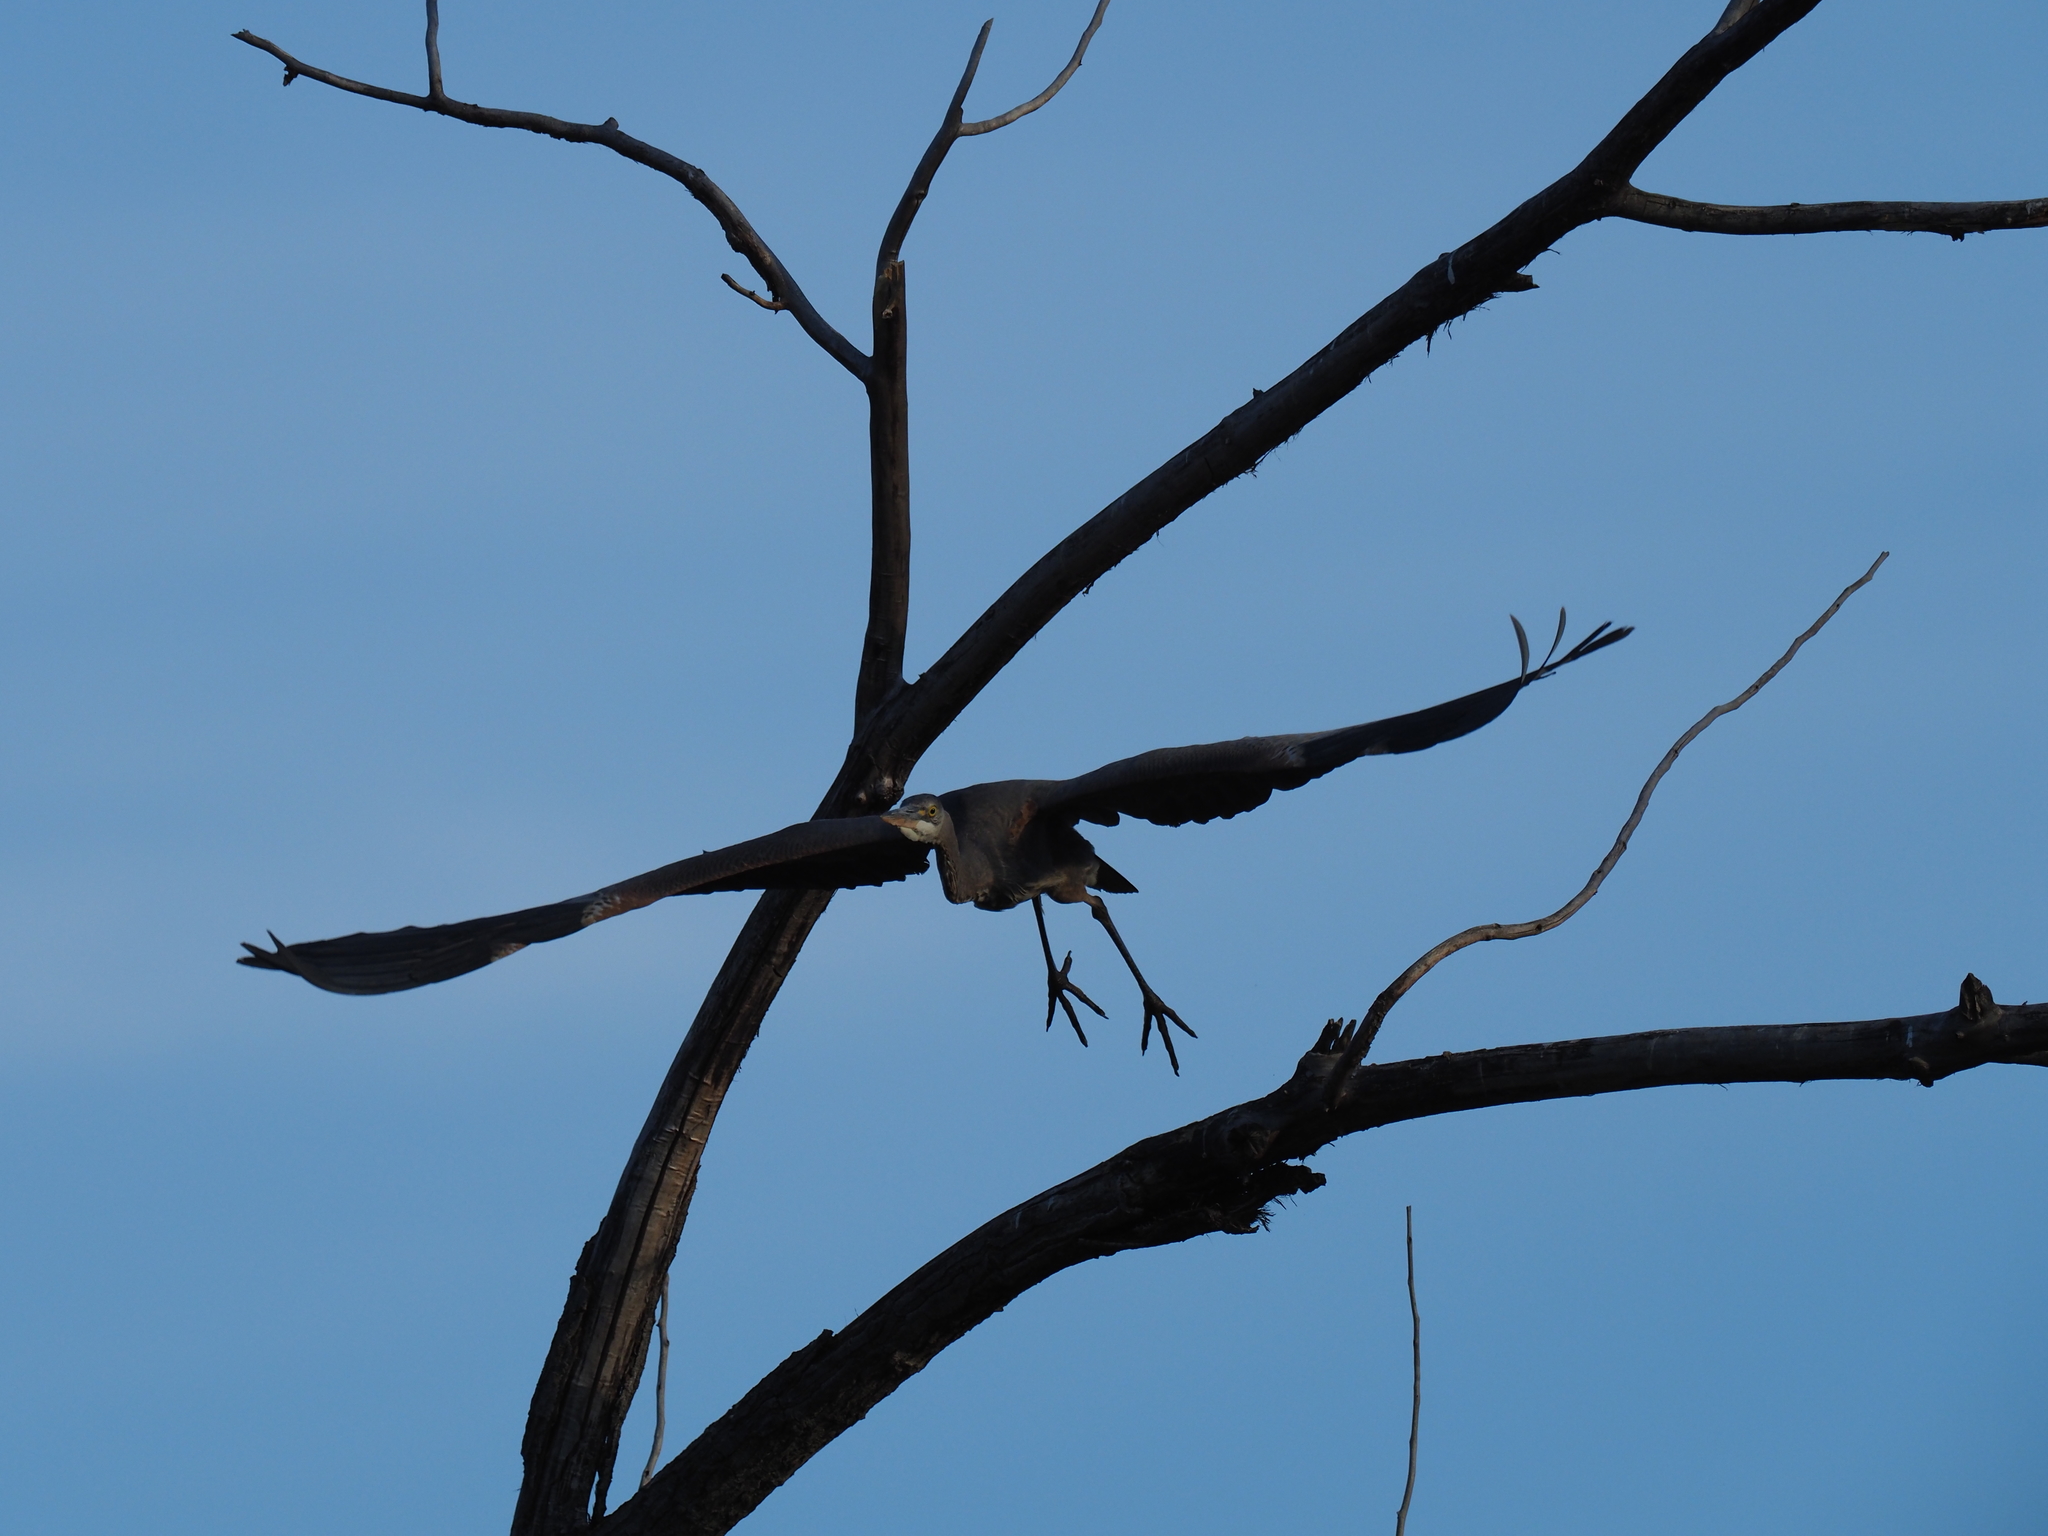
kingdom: Animalia
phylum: Chordata
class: Aves
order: Pelecaniformes
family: Ardeidae
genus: Ardea
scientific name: Ardea herodias
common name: Great blue heron
